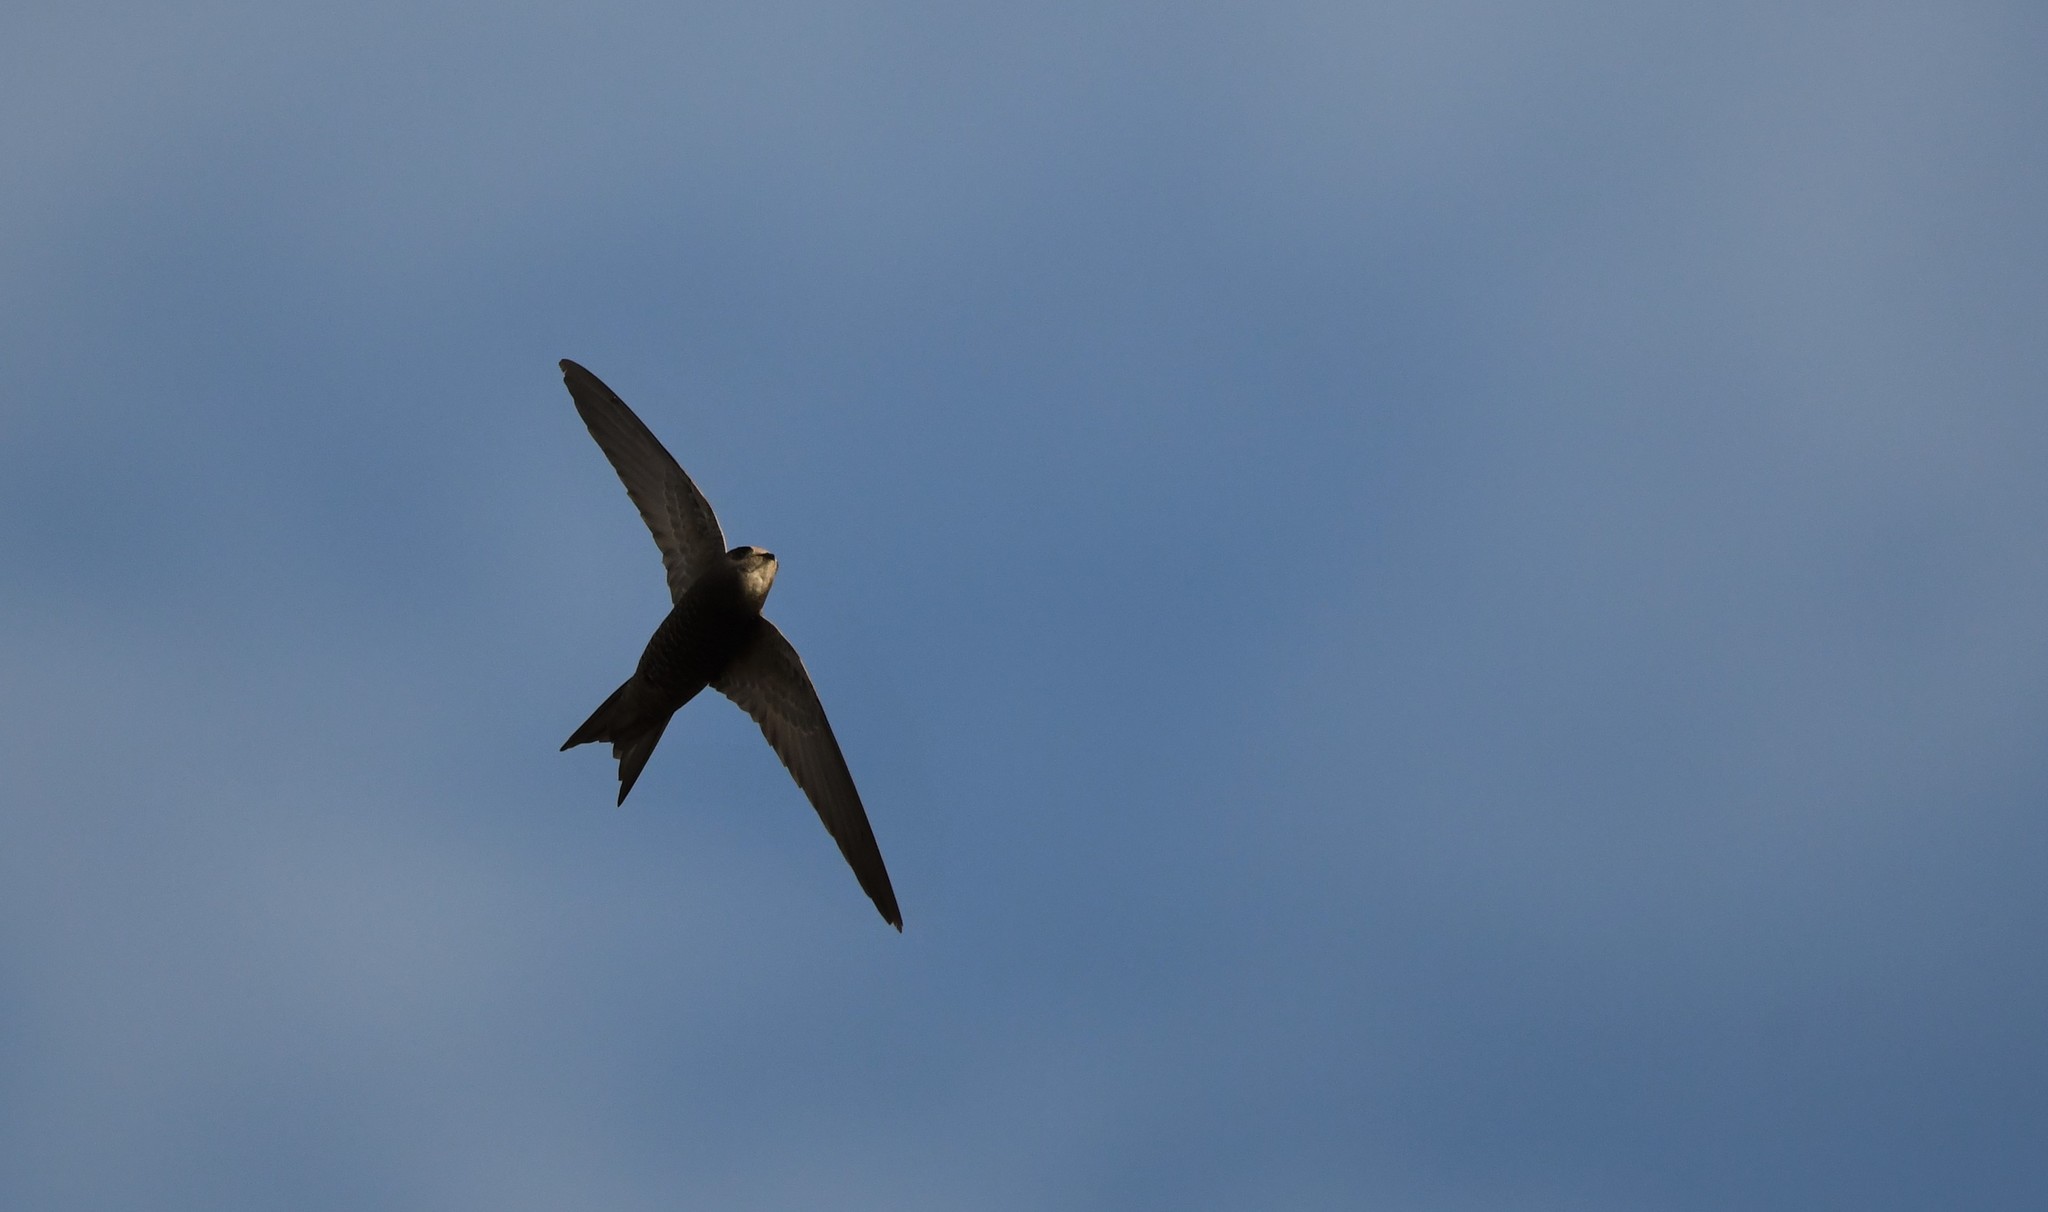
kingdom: Animalia
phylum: Chordata
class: Aves
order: Apodiformes
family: Apodidae
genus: Apus
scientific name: Apus apus
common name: Common swift
